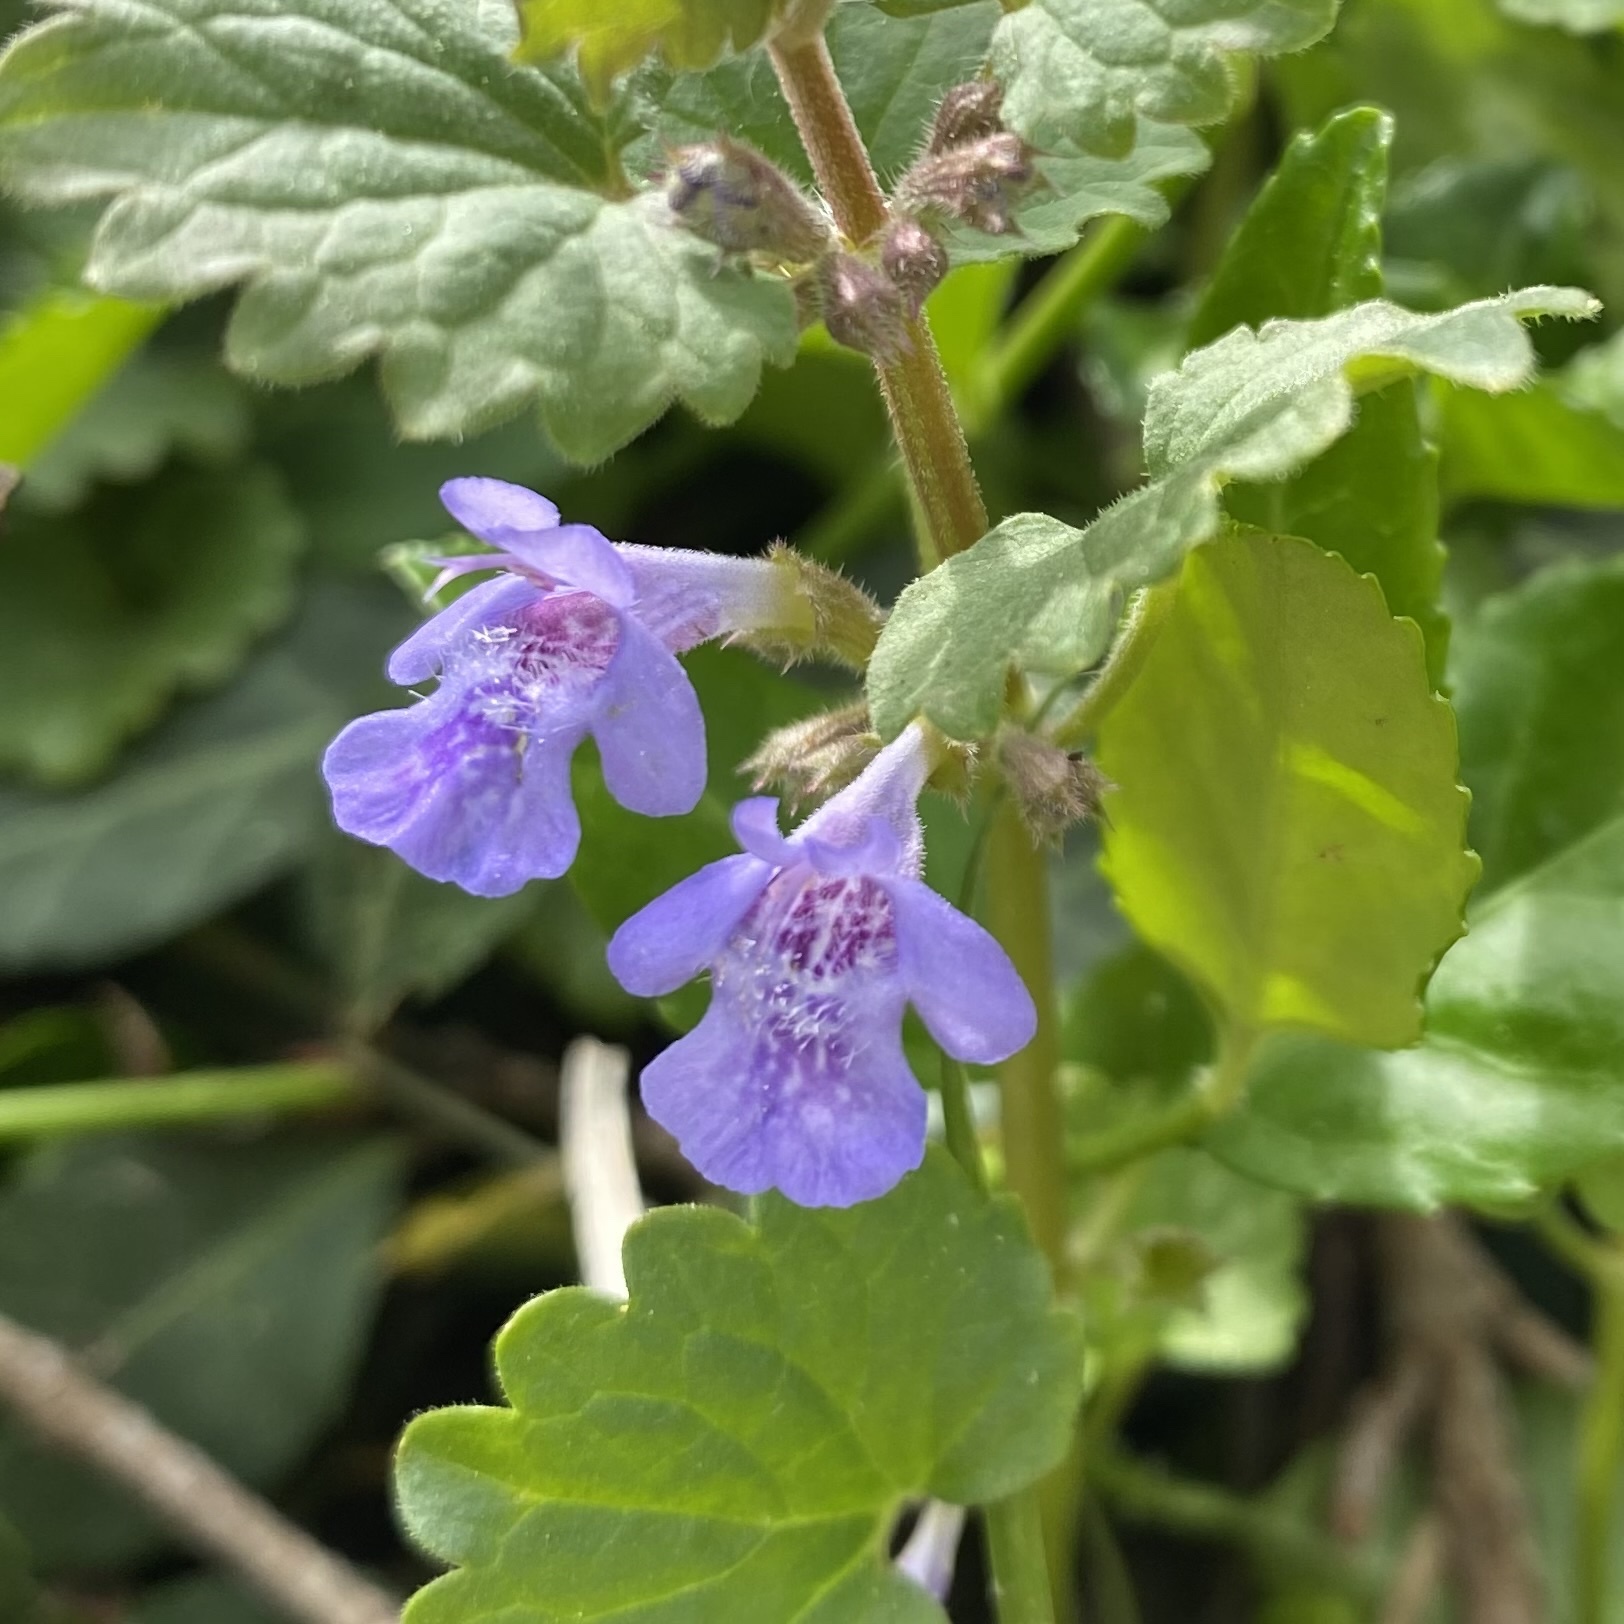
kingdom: Plantae
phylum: Tracheophyta
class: Magnoliopsida
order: Lamiales
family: Lamiaceae
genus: Glechoma
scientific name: Glechoma hederacea
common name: Ground ivy
